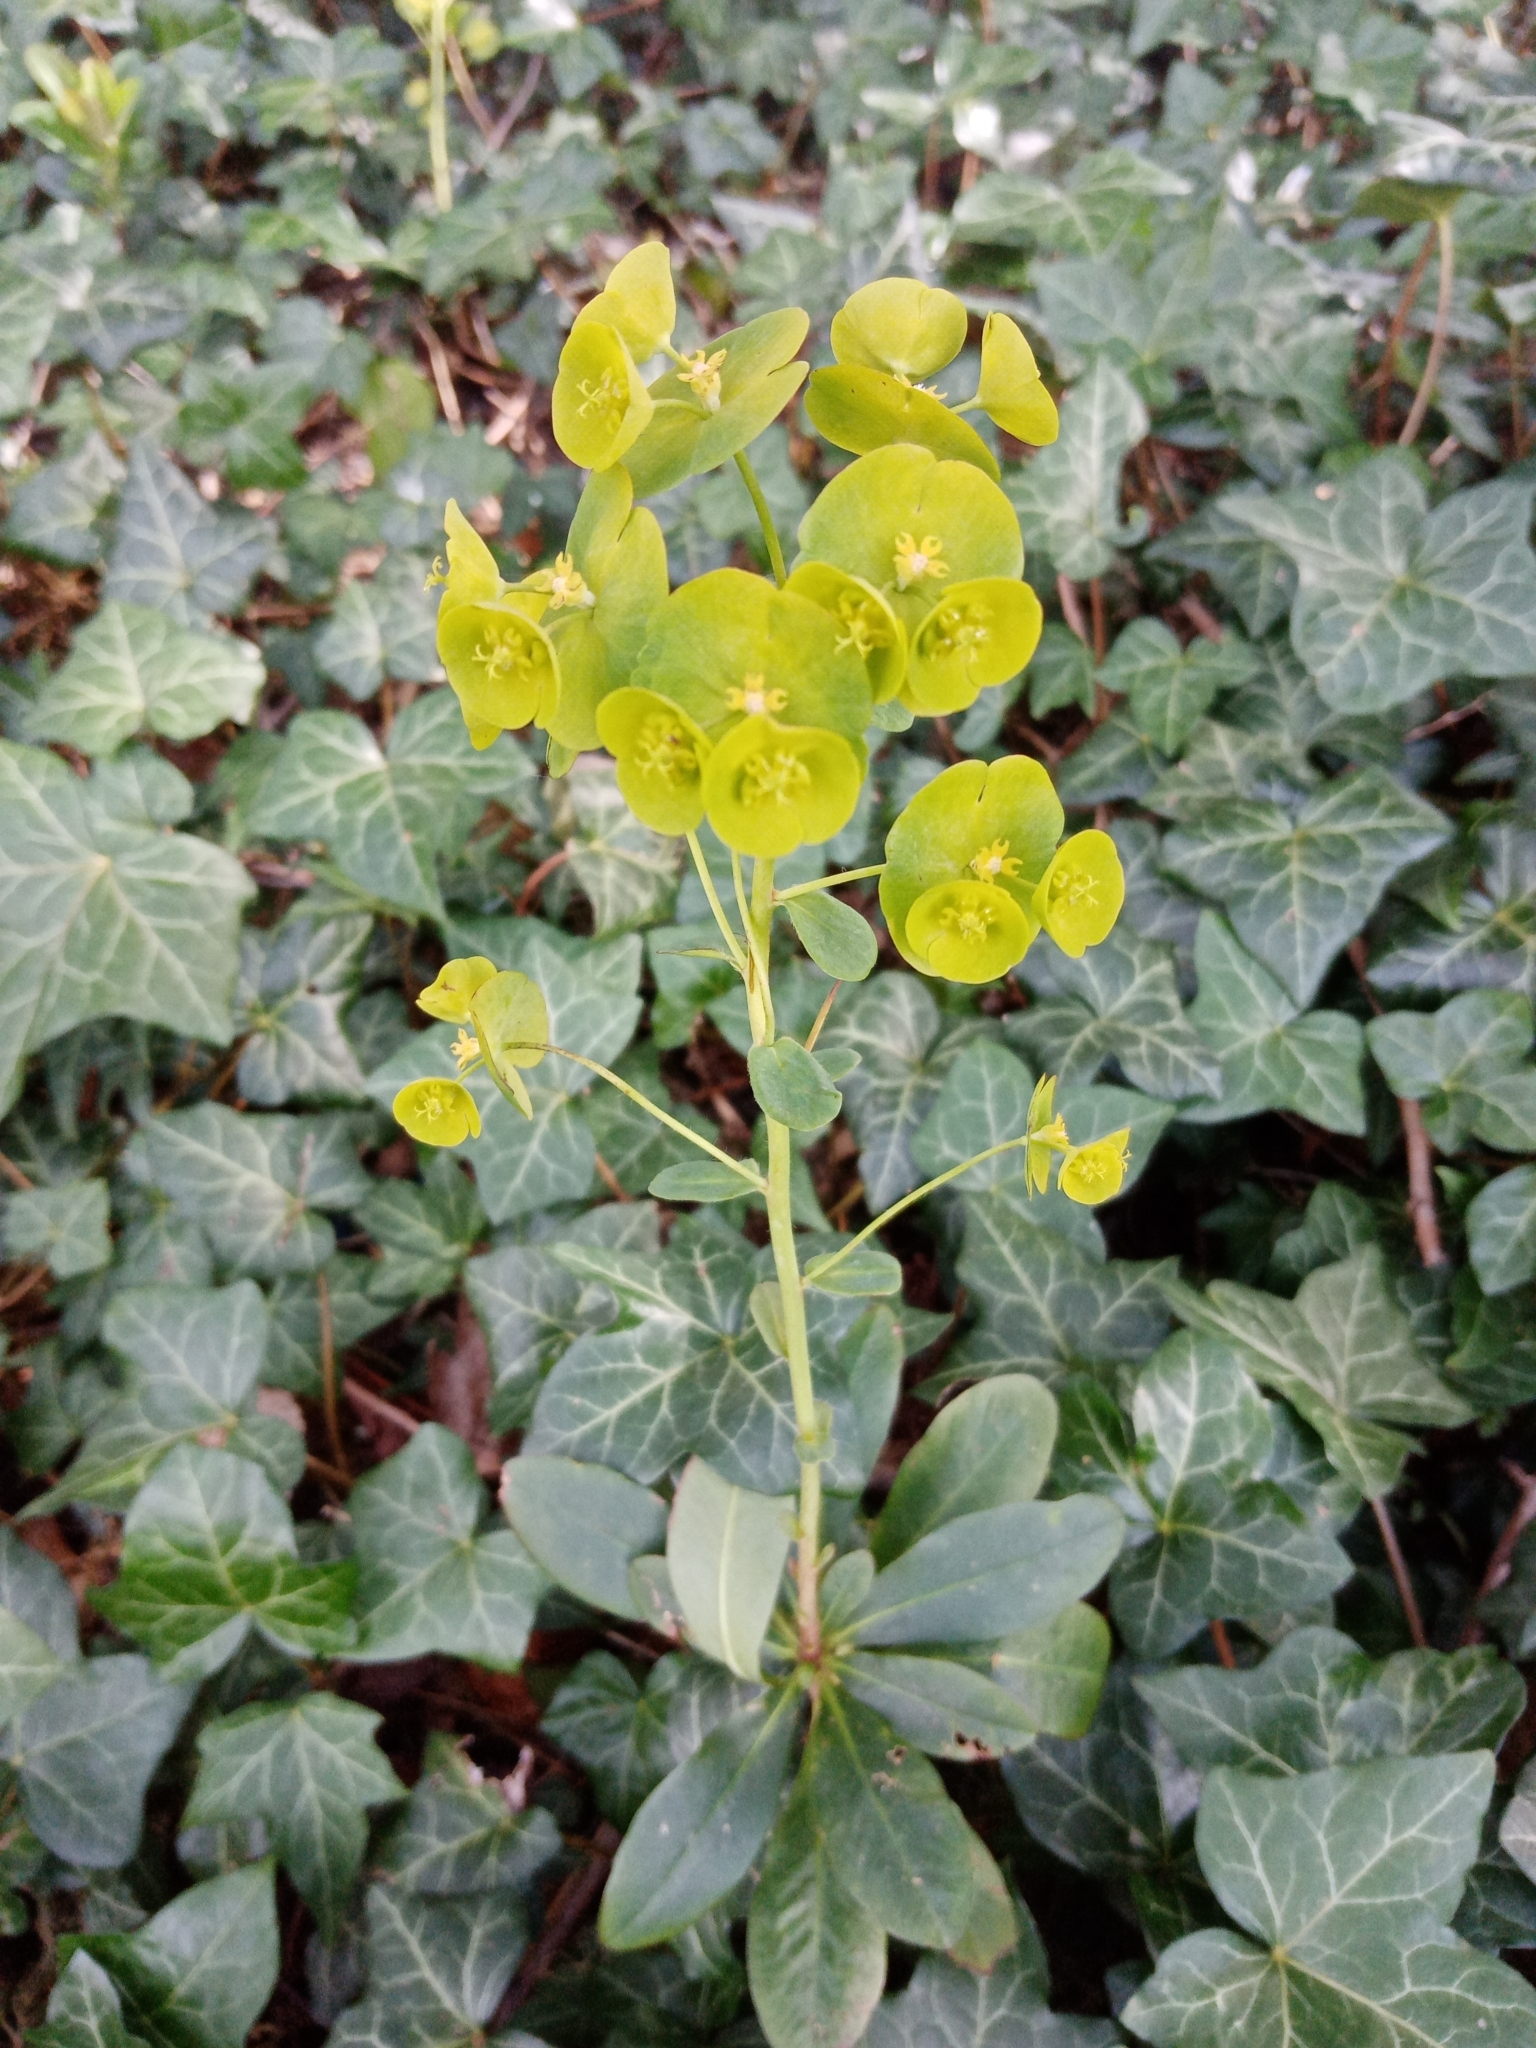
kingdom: Plantae
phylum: Tracheophyta
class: Magnoliopsida
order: Malpighiales
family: Euphorbiaceae
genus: Euphorbia
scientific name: Euphorbia amygdaloides
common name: Wood spurge
